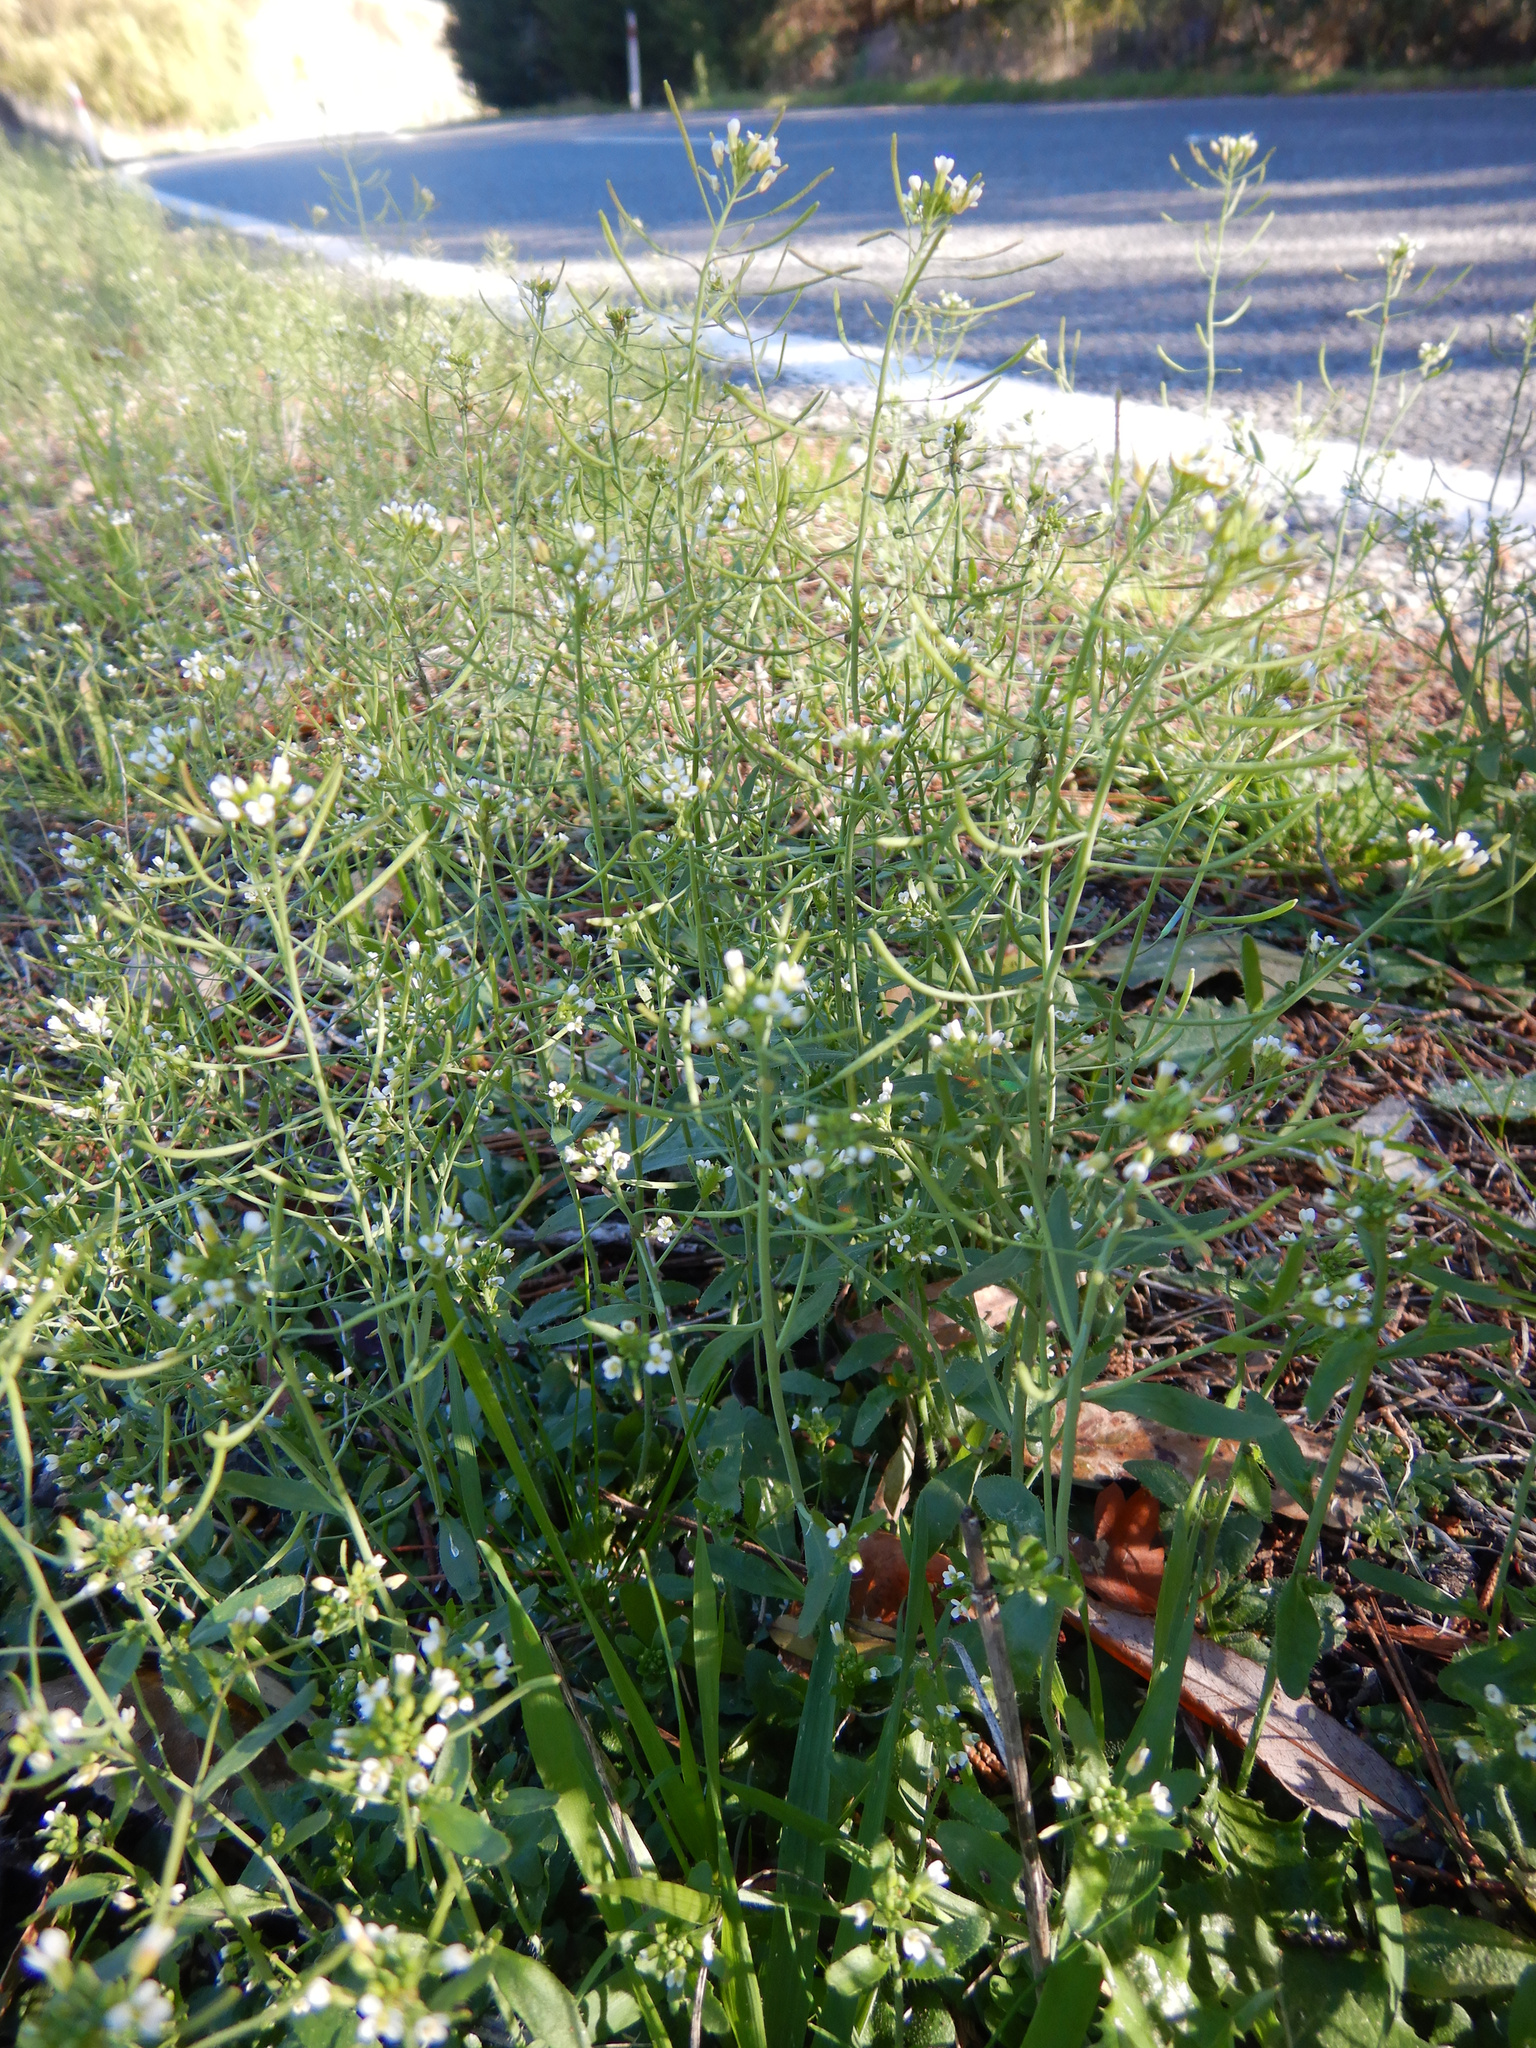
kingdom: Plantae
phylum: Tracheophyta
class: Magnoliopsida
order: Brassicales
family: Brassicaceae
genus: Cardamine
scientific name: Cardamine hirsuta
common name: Hairy bittercress
